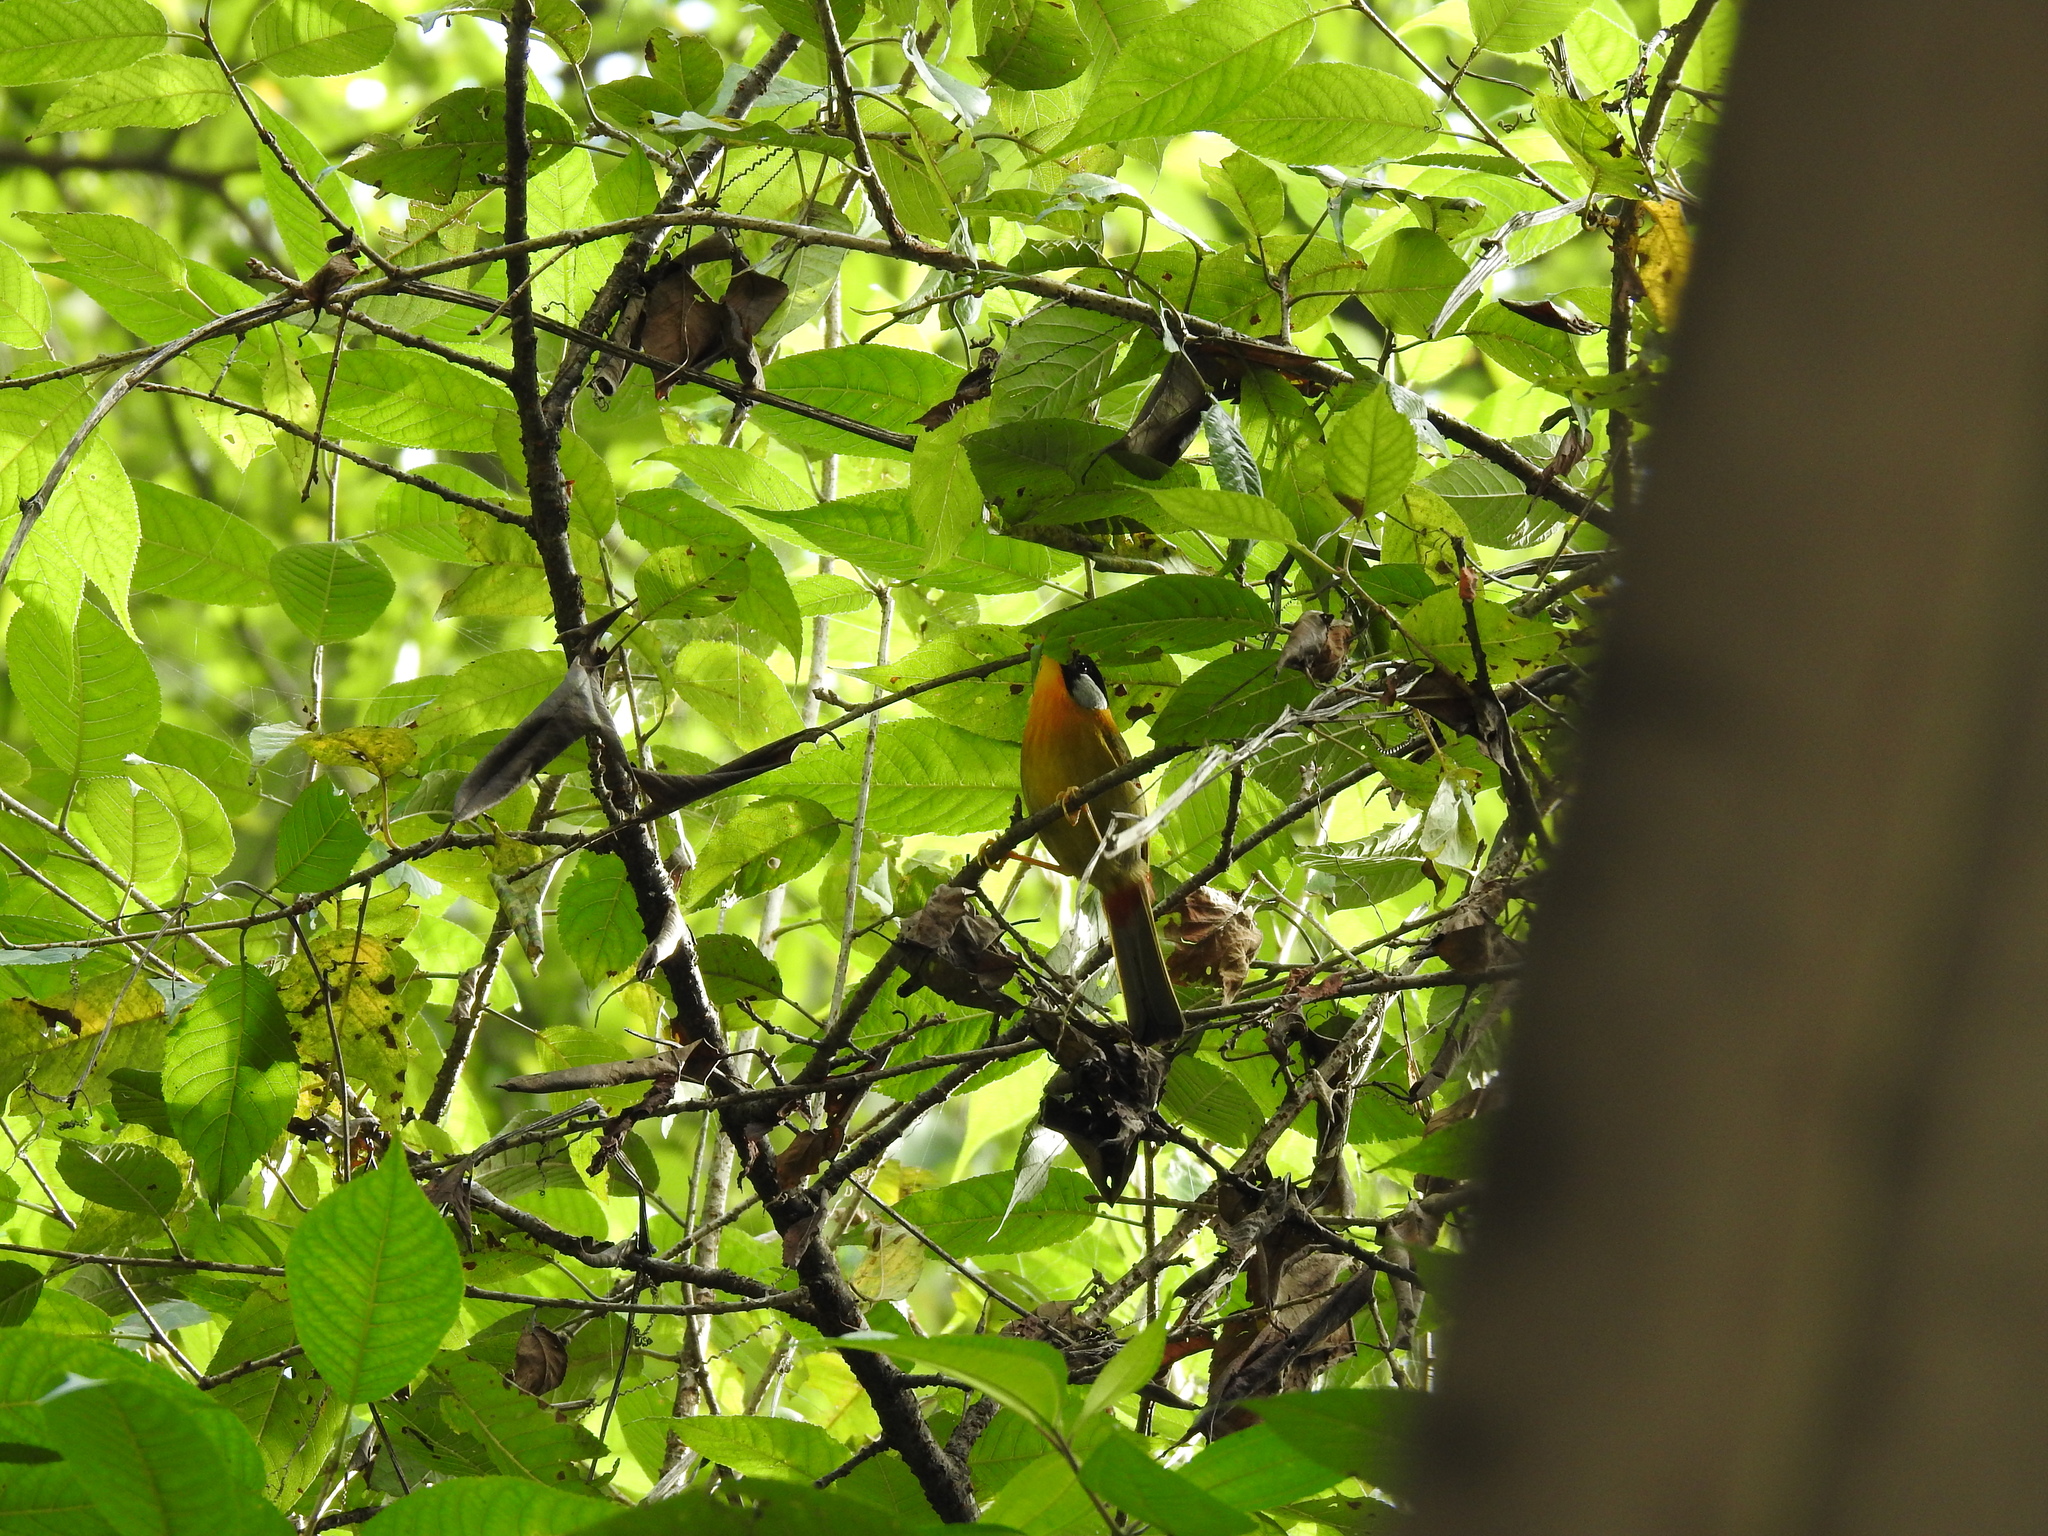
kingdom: Animalia
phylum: Chordata
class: Aves
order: Passeriformes
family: Leiothrichidae
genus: Leiothrix
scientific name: Leiothrix argentauris
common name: Silver-eared mesia
